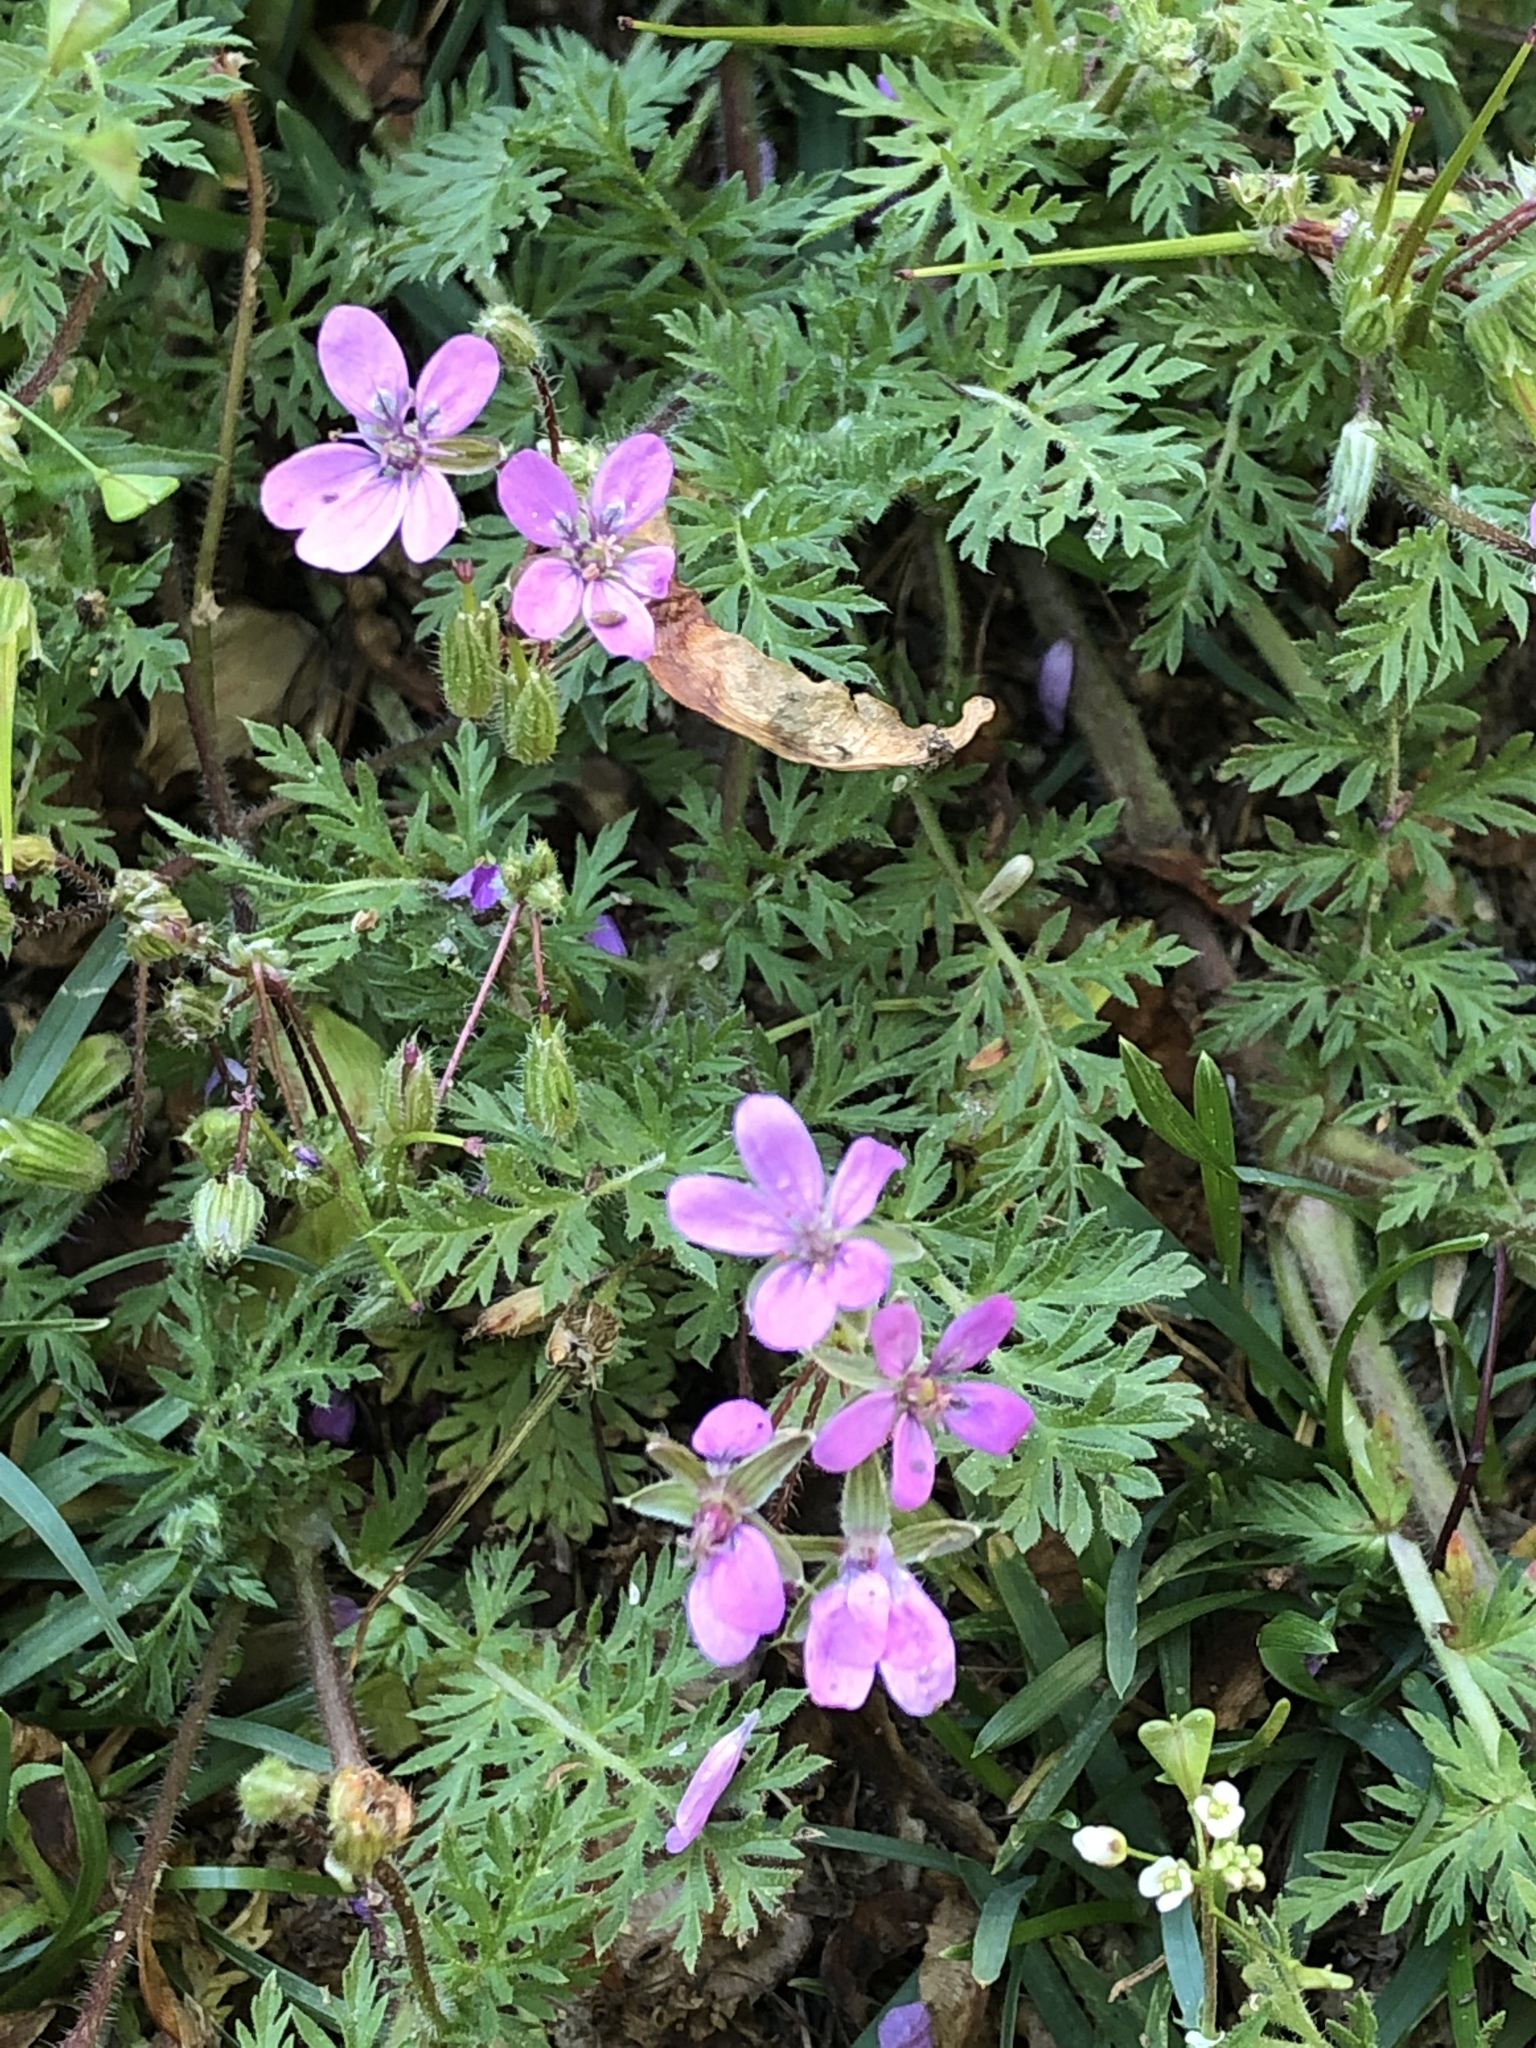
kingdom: Plantae
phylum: Tracheophyta
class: Magnoliopsida
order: Geraniales
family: Geraniaceae
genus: Erodium
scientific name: Erodium cicutarium
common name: Common stork's-bill
